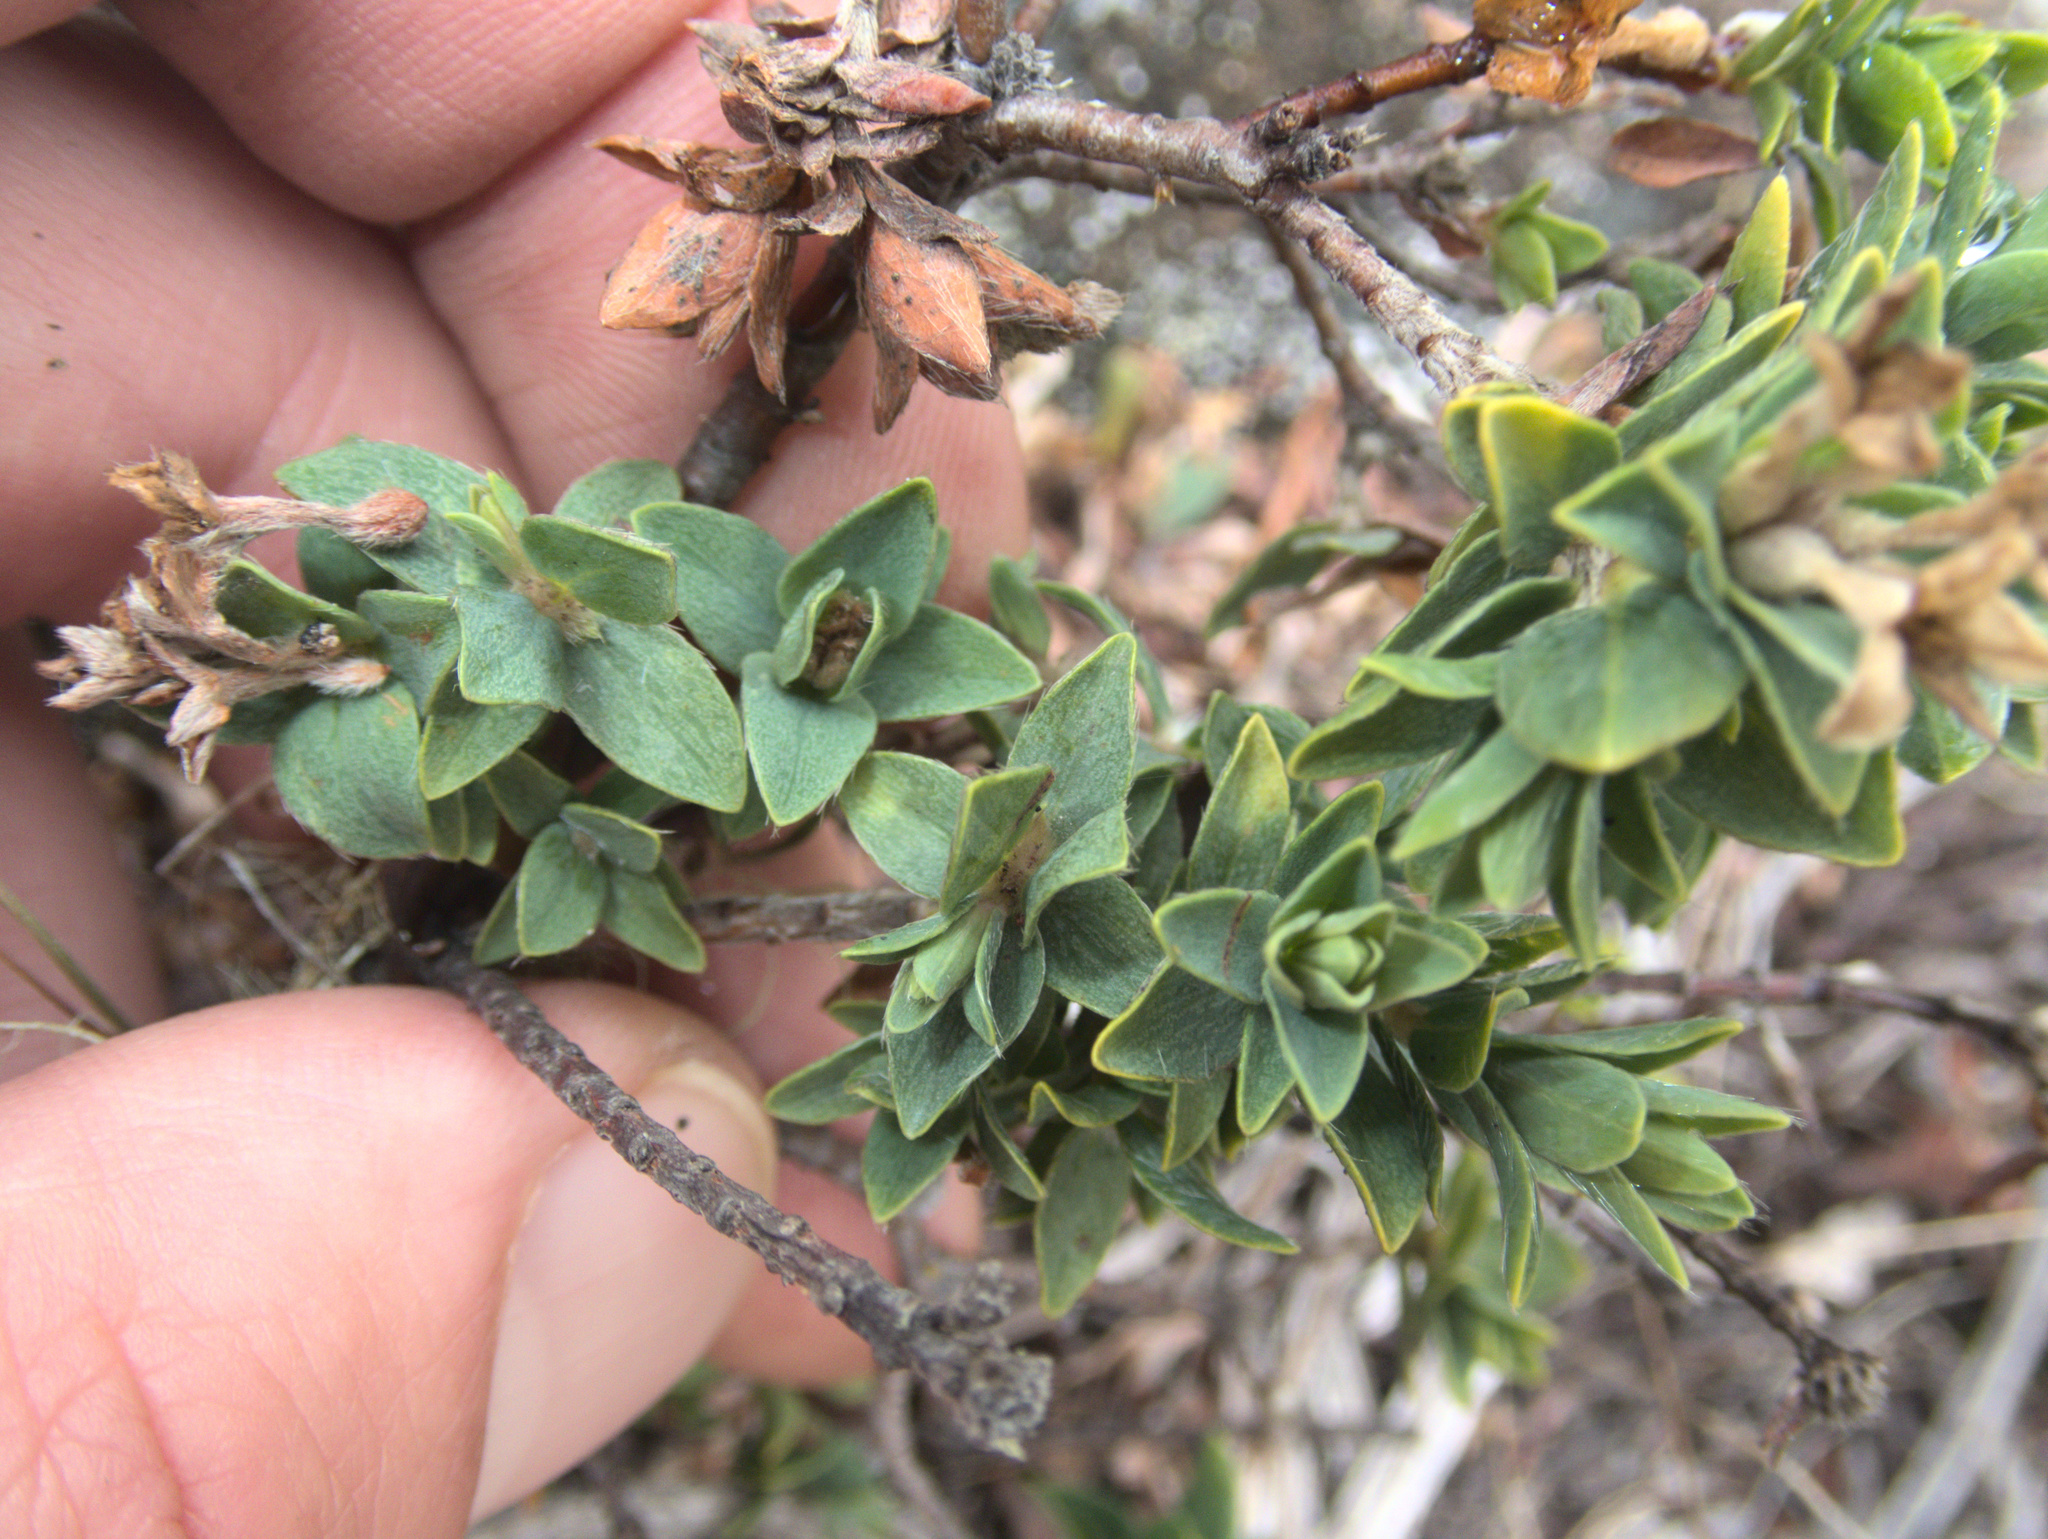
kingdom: Plantae
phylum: Tracheophyta
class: Magnoliopsida
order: Malvales
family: Thymelaeaceae
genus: Pimelea
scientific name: Pimelea acra
